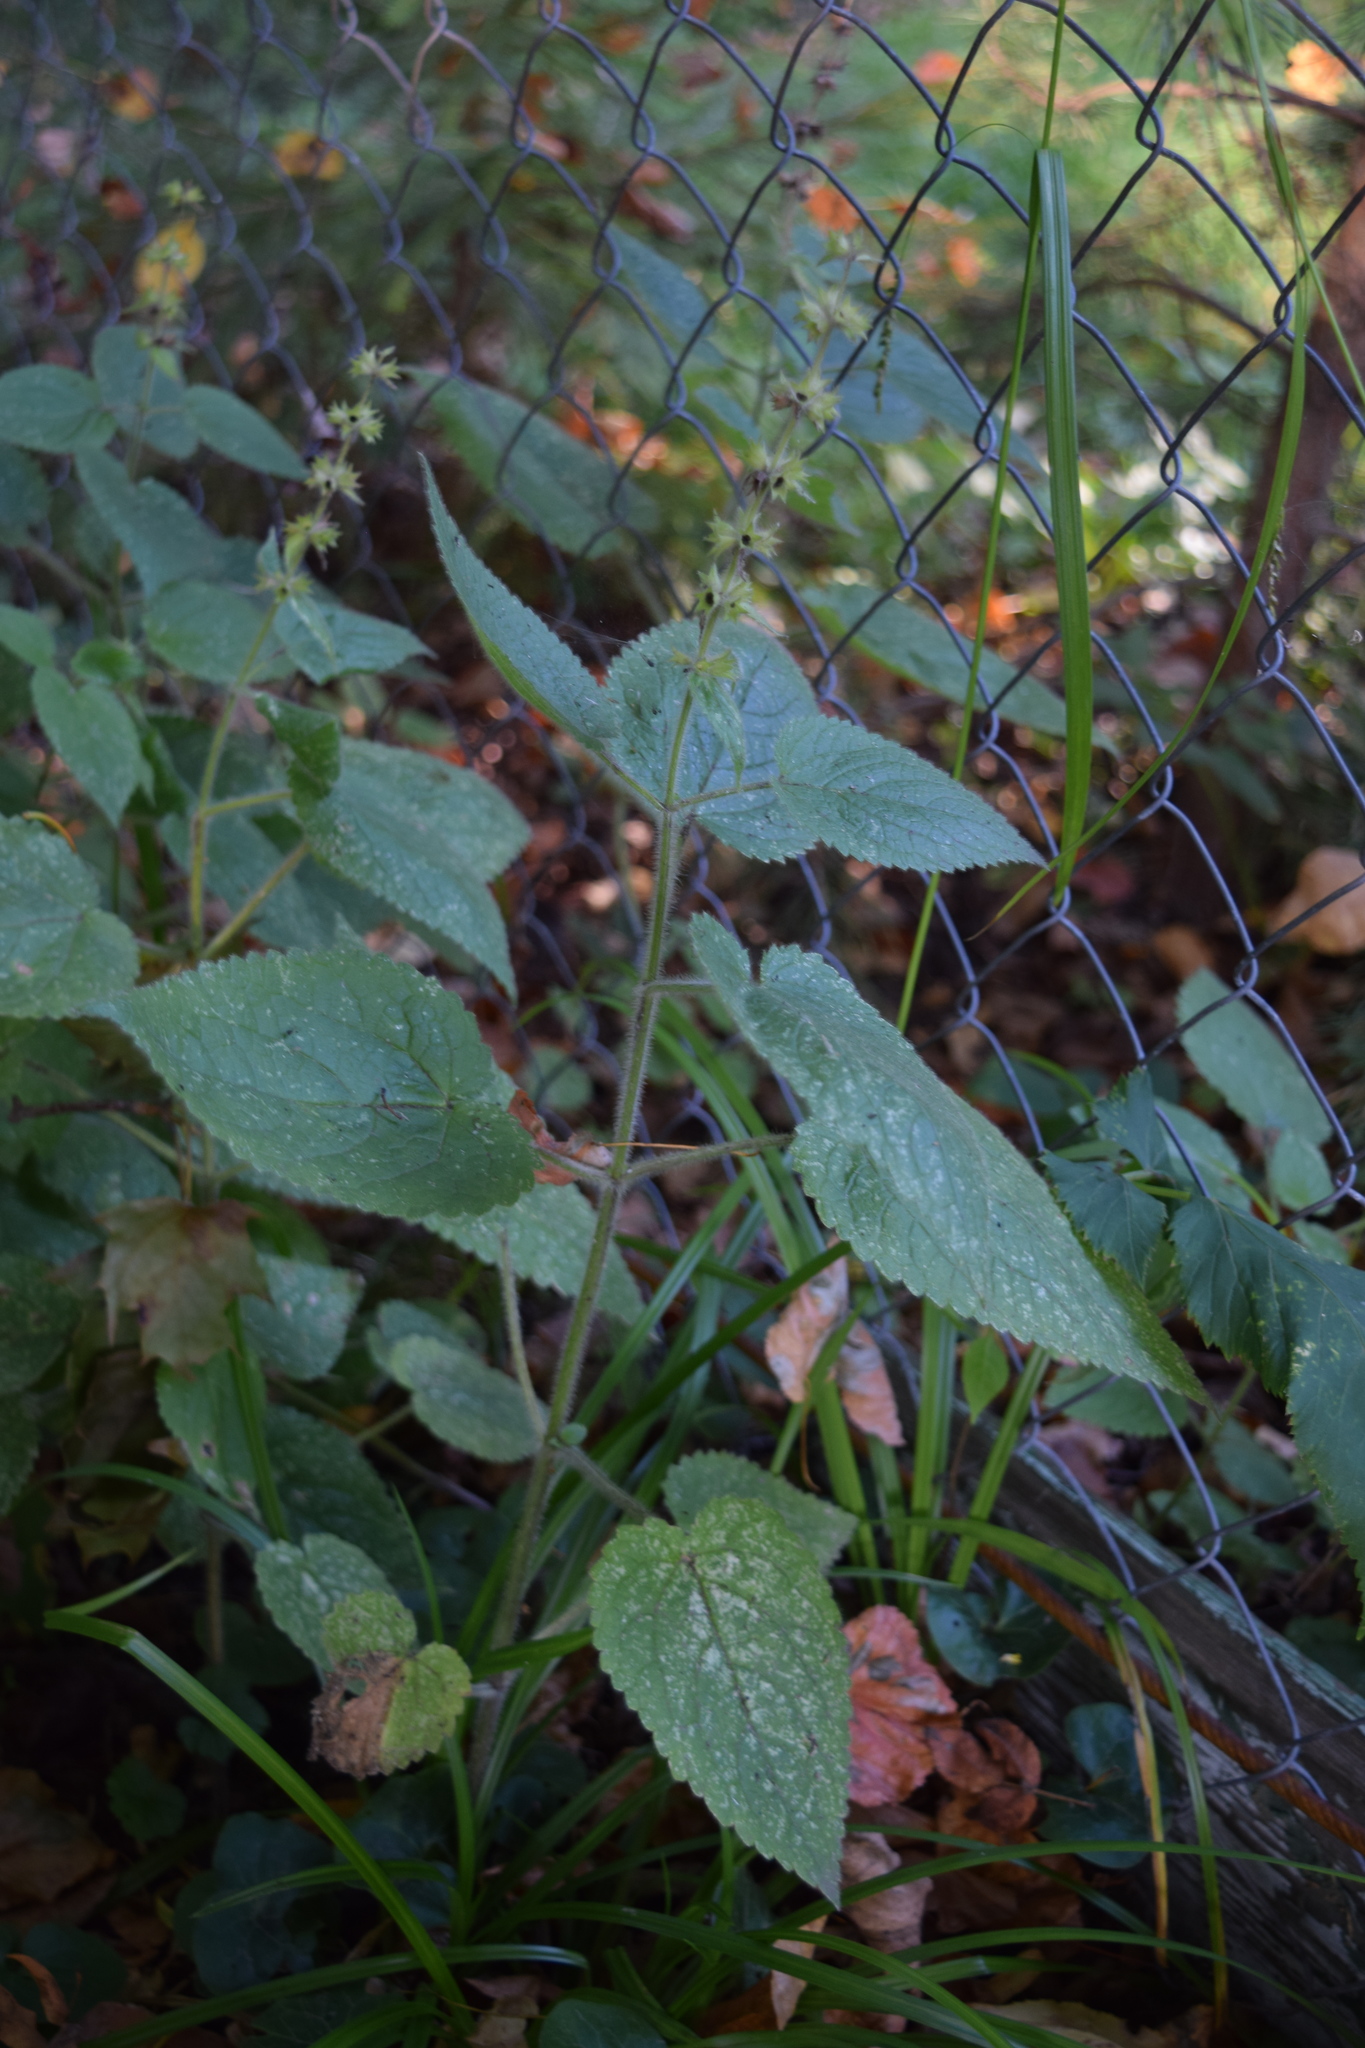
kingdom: Plantae
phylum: Tracheophyta
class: Magnoliopsida
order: Lamiales
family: Lamiaceae
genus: Stachys
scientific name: Stachys sylvatica
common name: Hedge woundwort
